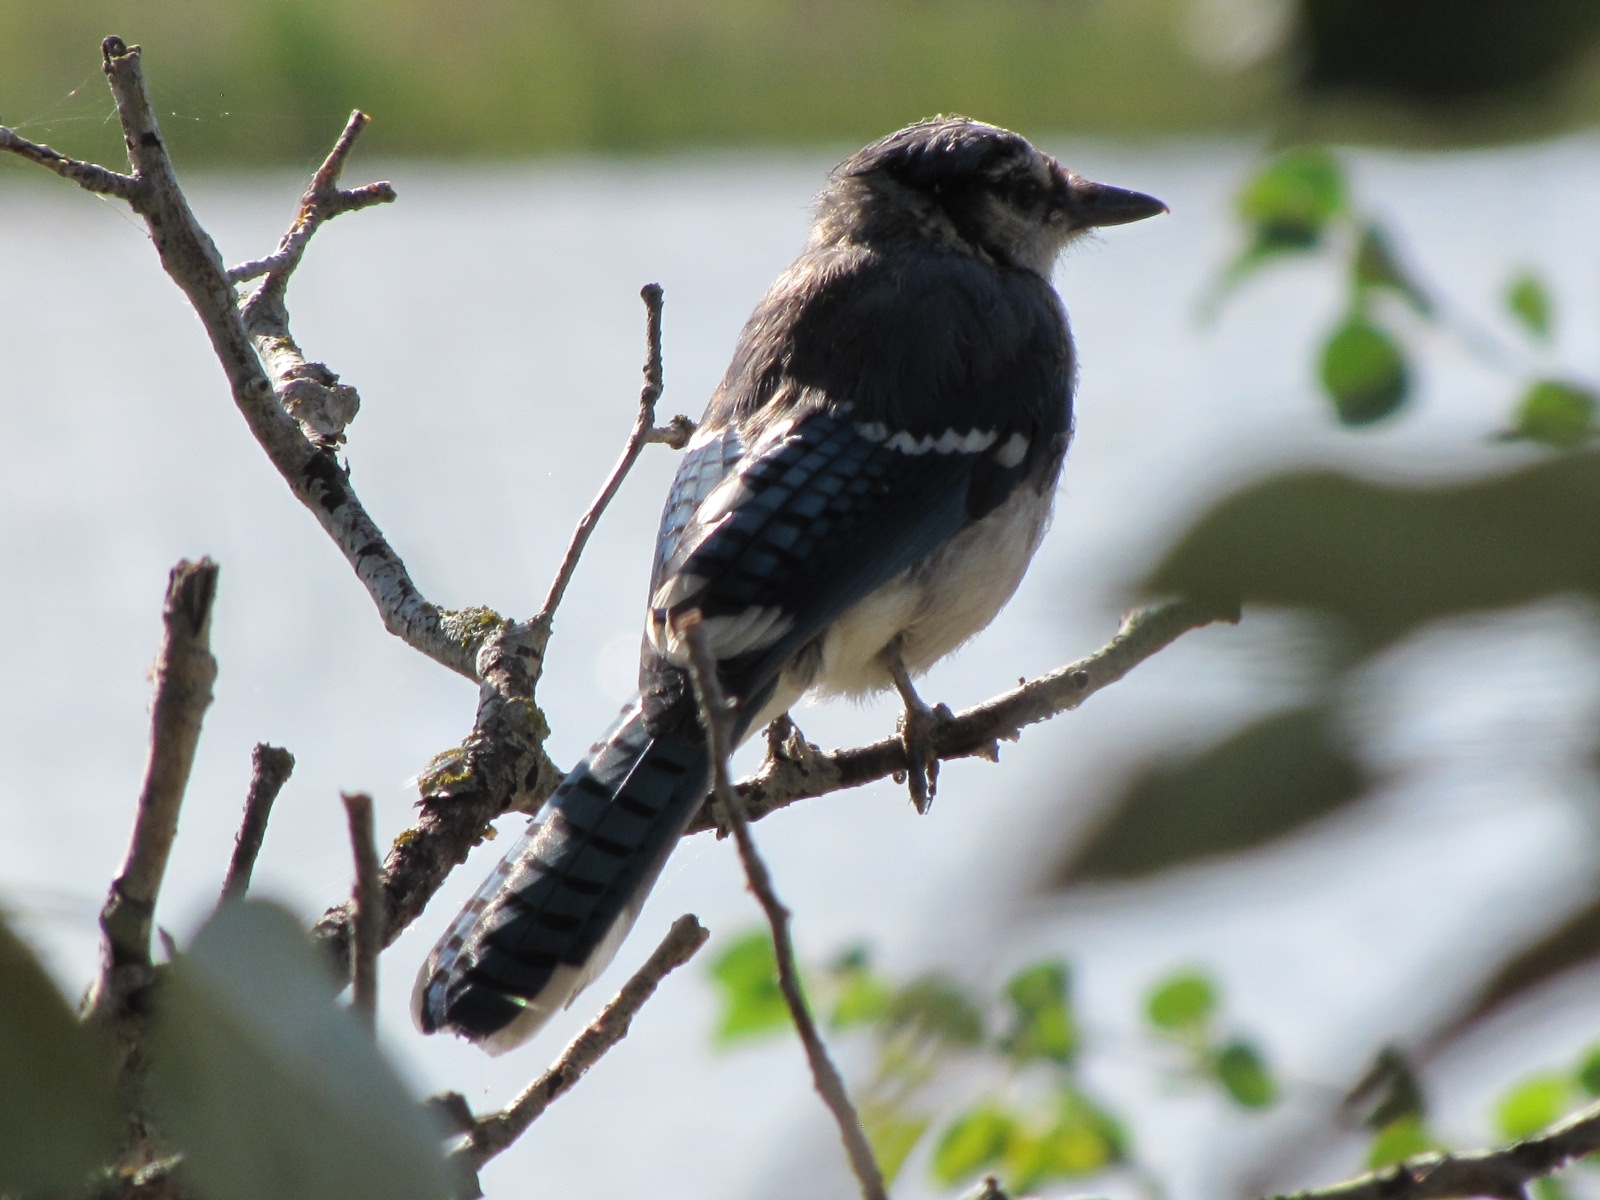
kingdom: Animalia
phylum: Chordata
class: Aves
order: Passeriformes
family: Corvidae
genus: Cyanocitta
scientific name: Cyanocitta cristata
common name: Blue jay
